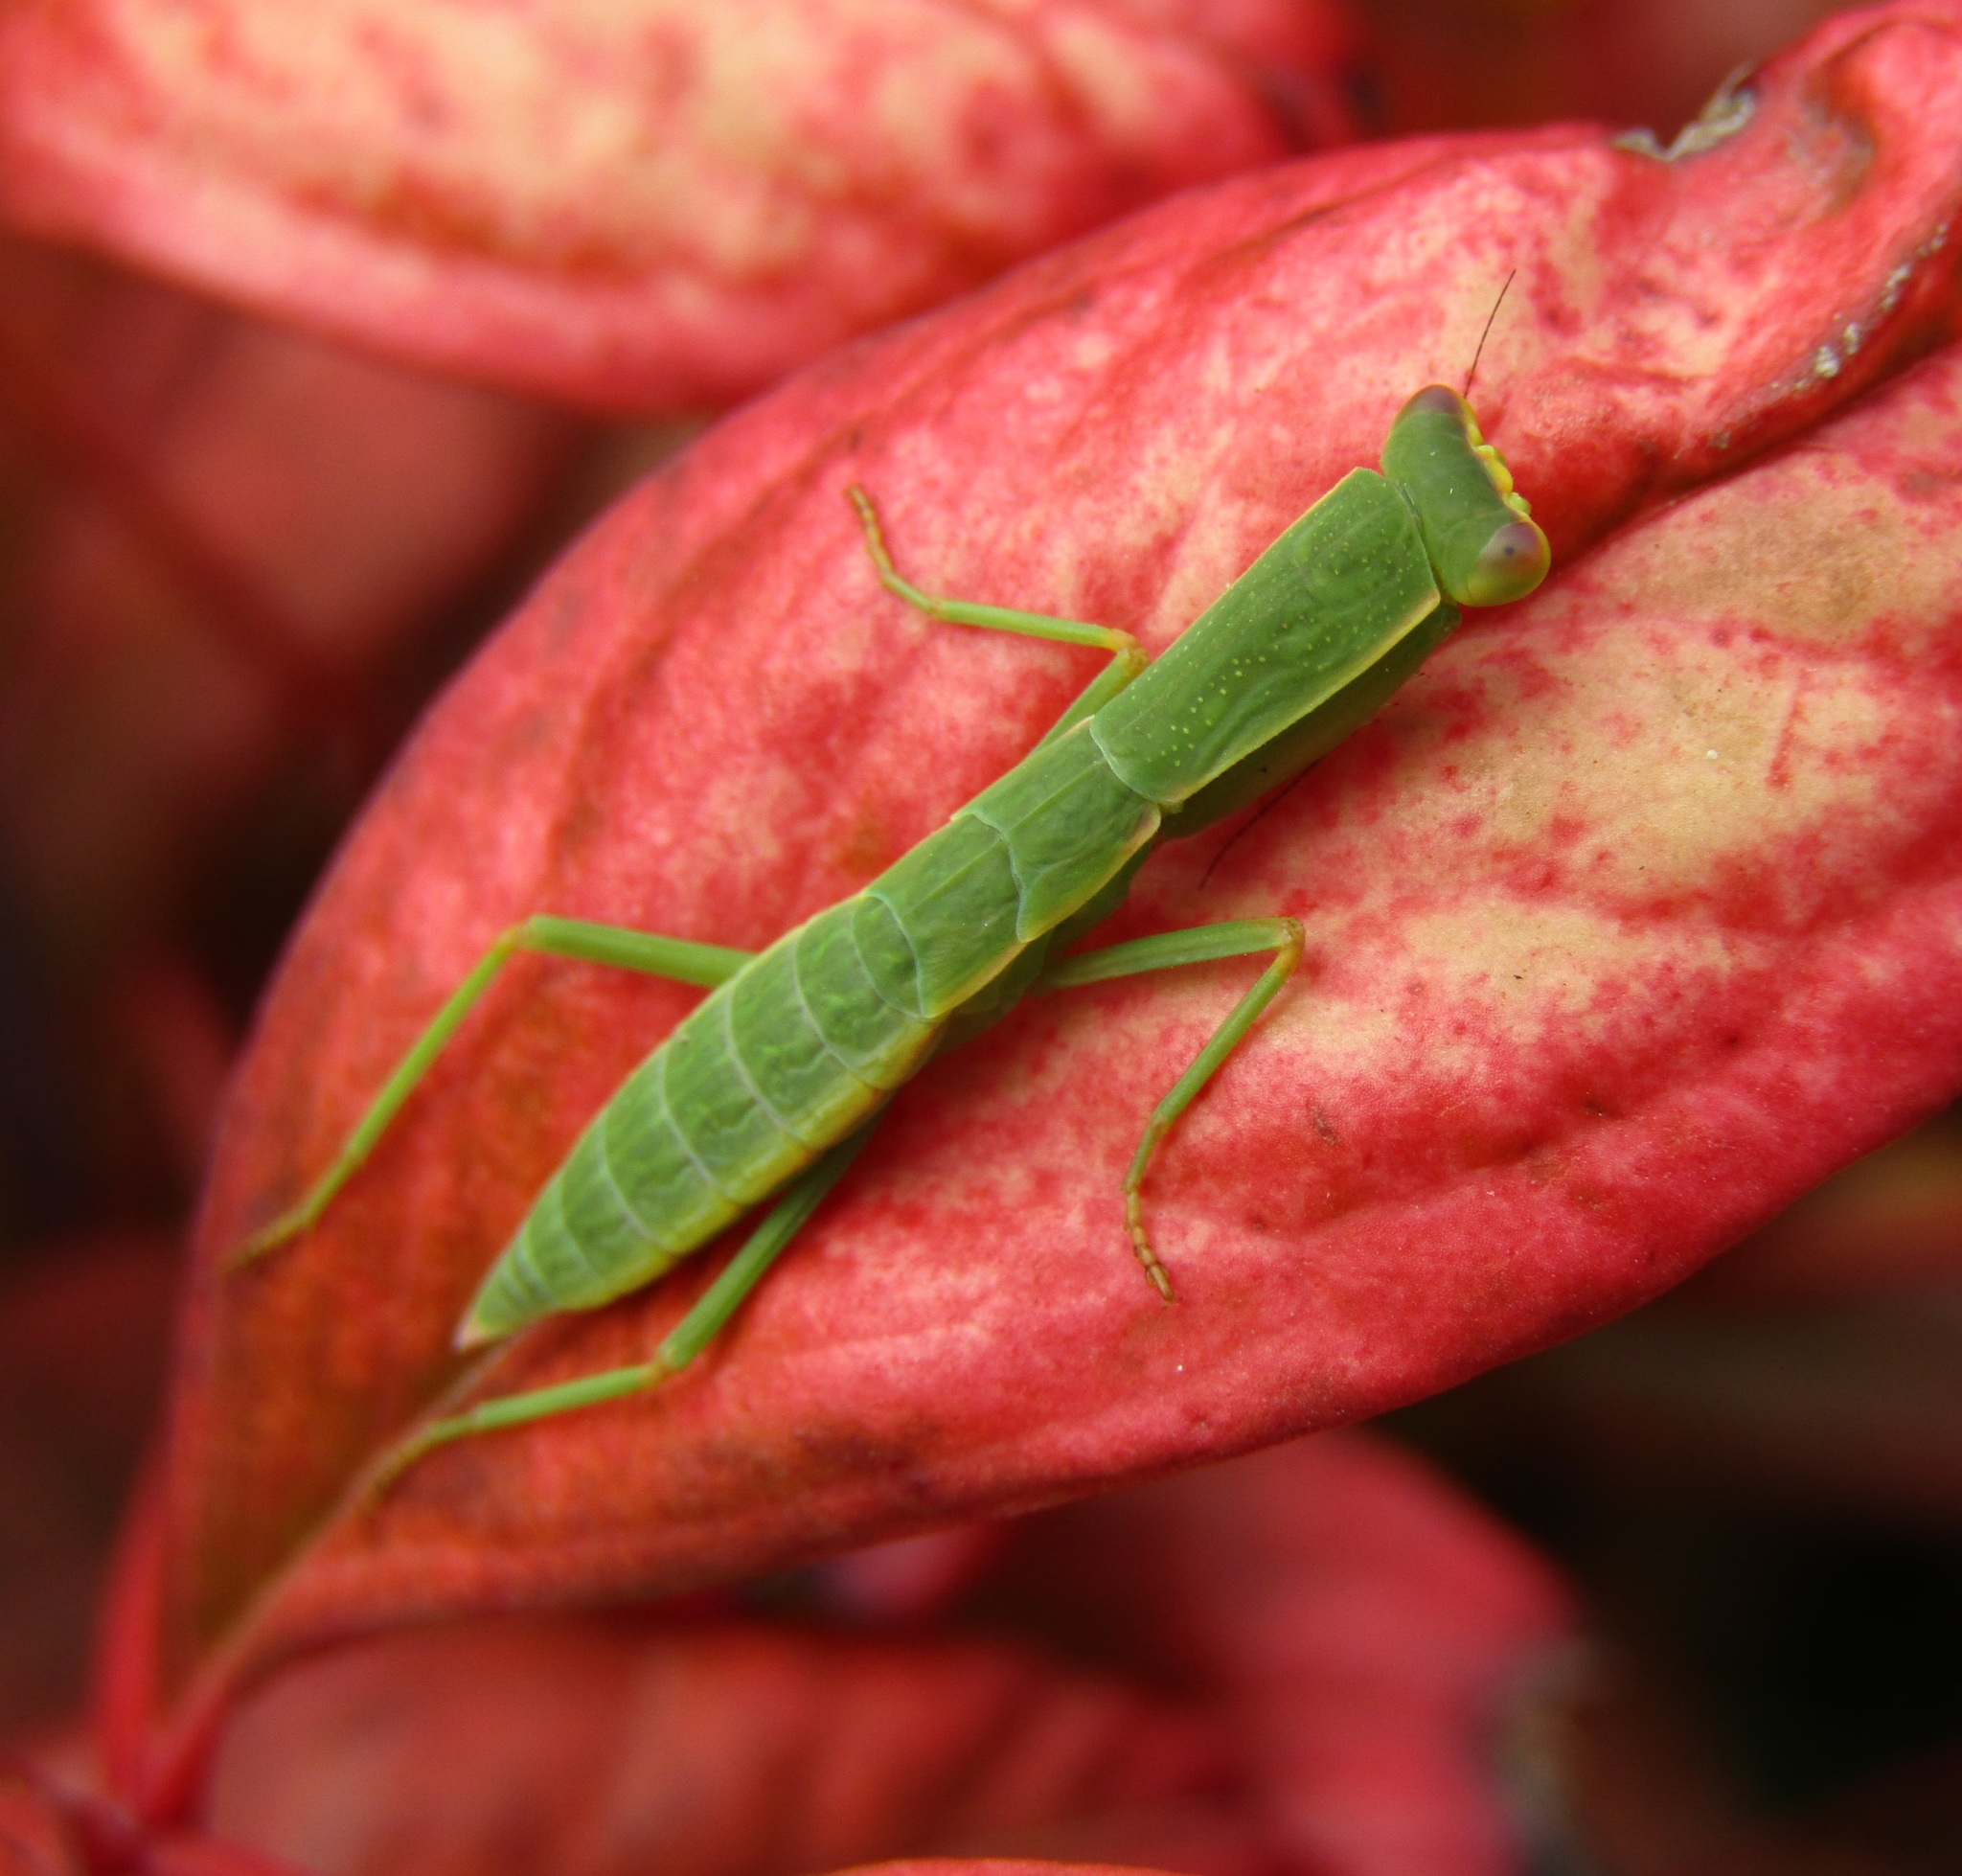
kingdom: Animalia
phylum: Arthropoda
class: Insecta
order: Mantodea
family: Mantidae
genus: Orthodera
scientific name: Orthodera novaezealandiae
